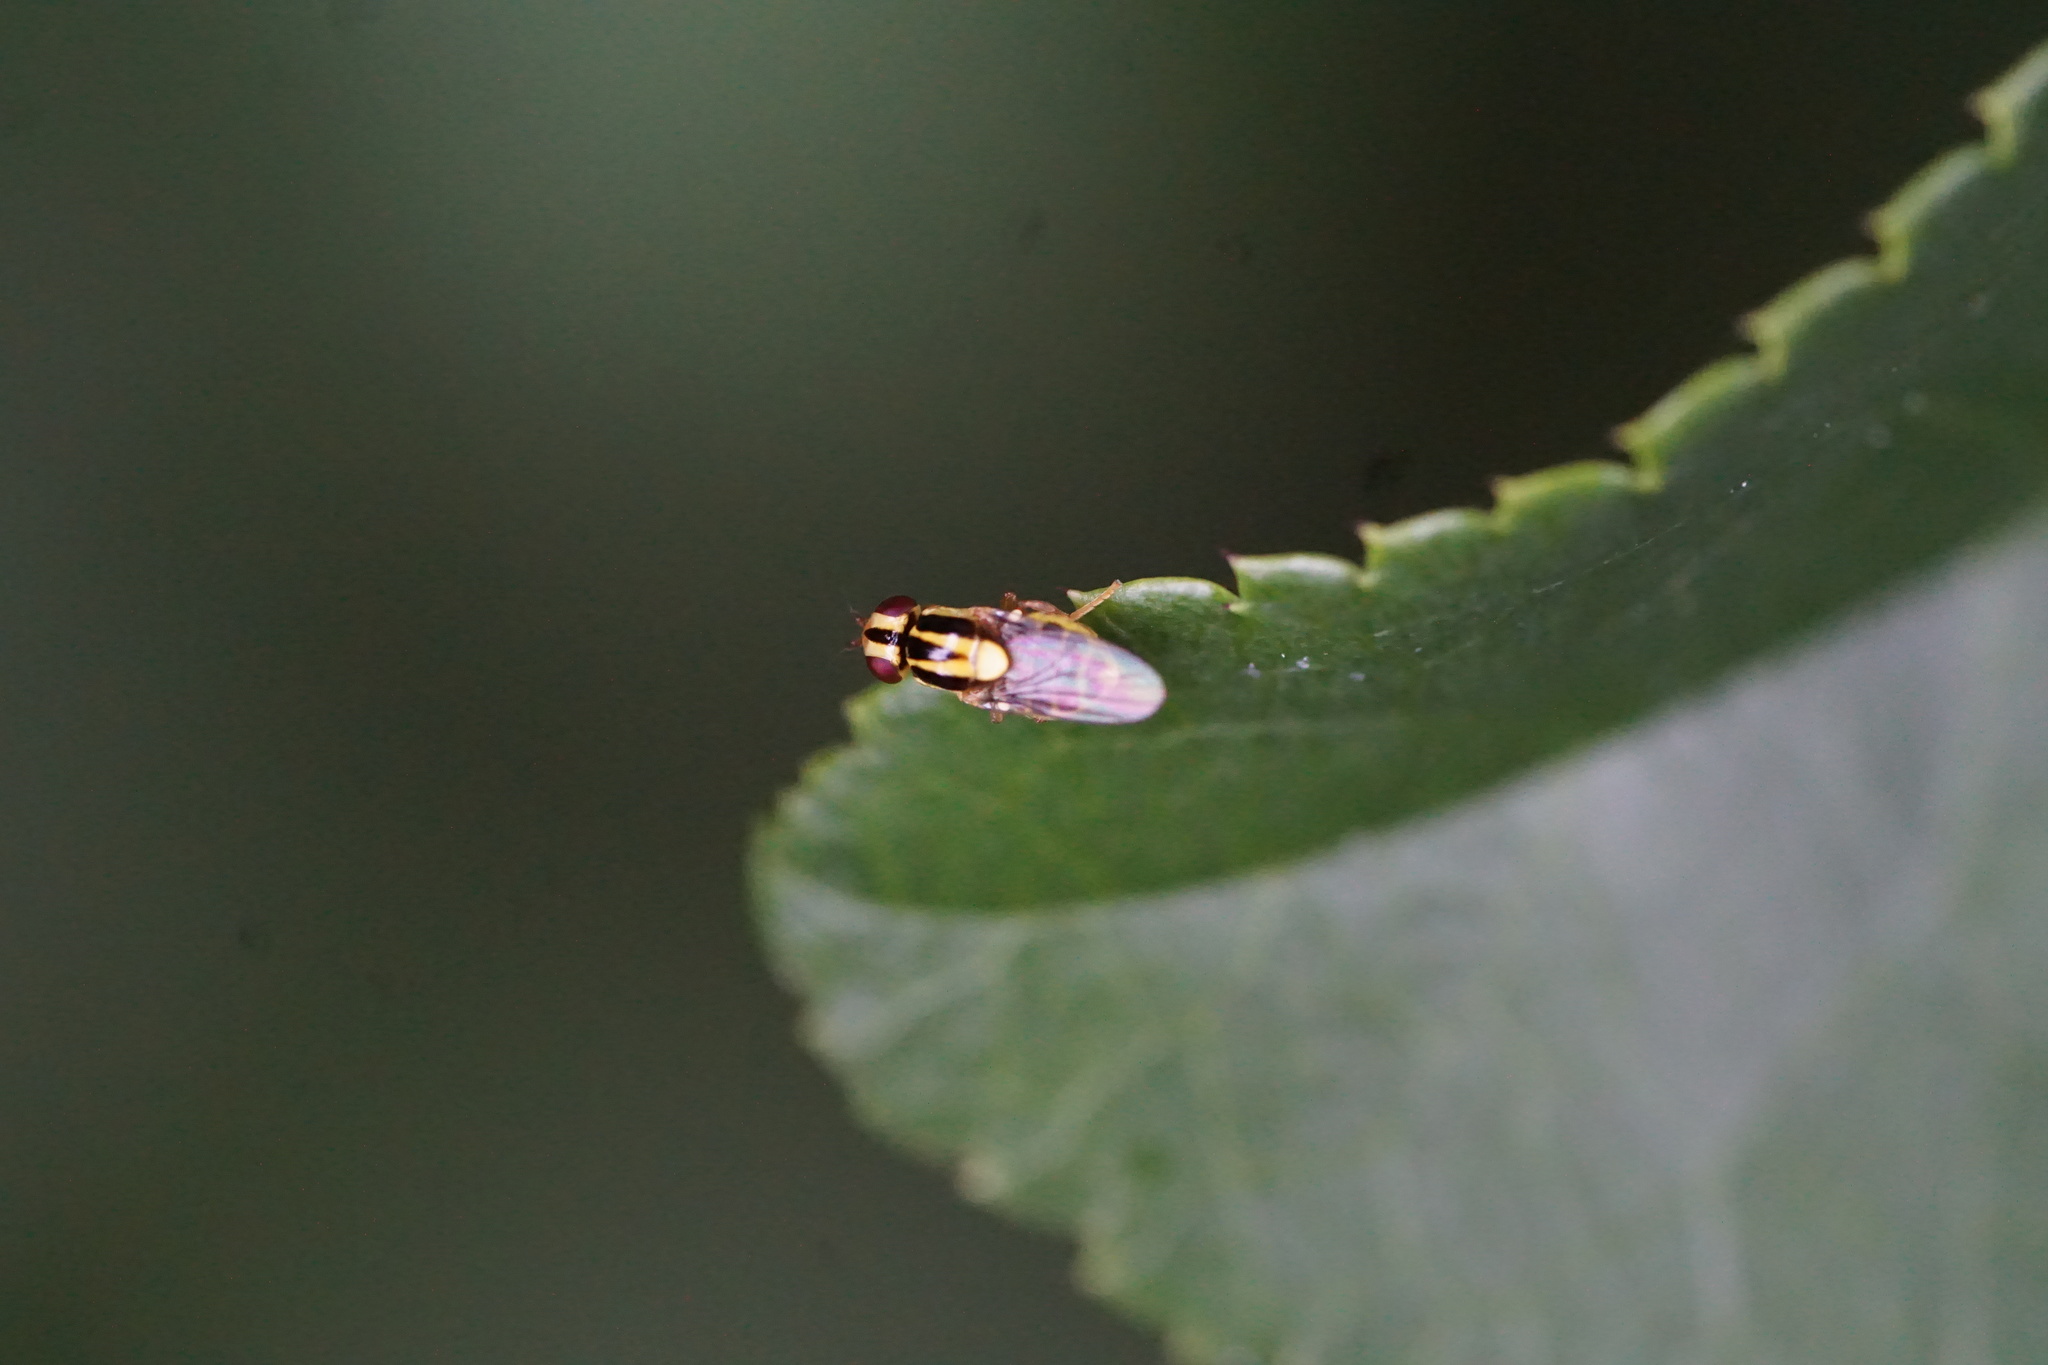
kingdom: Animalia
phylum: Arthropoda
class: Insecta
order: Diptera
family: Chloropidae
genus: Thaumatomyia
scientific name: Thaumatomyia glabra
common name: Chloropid fly
